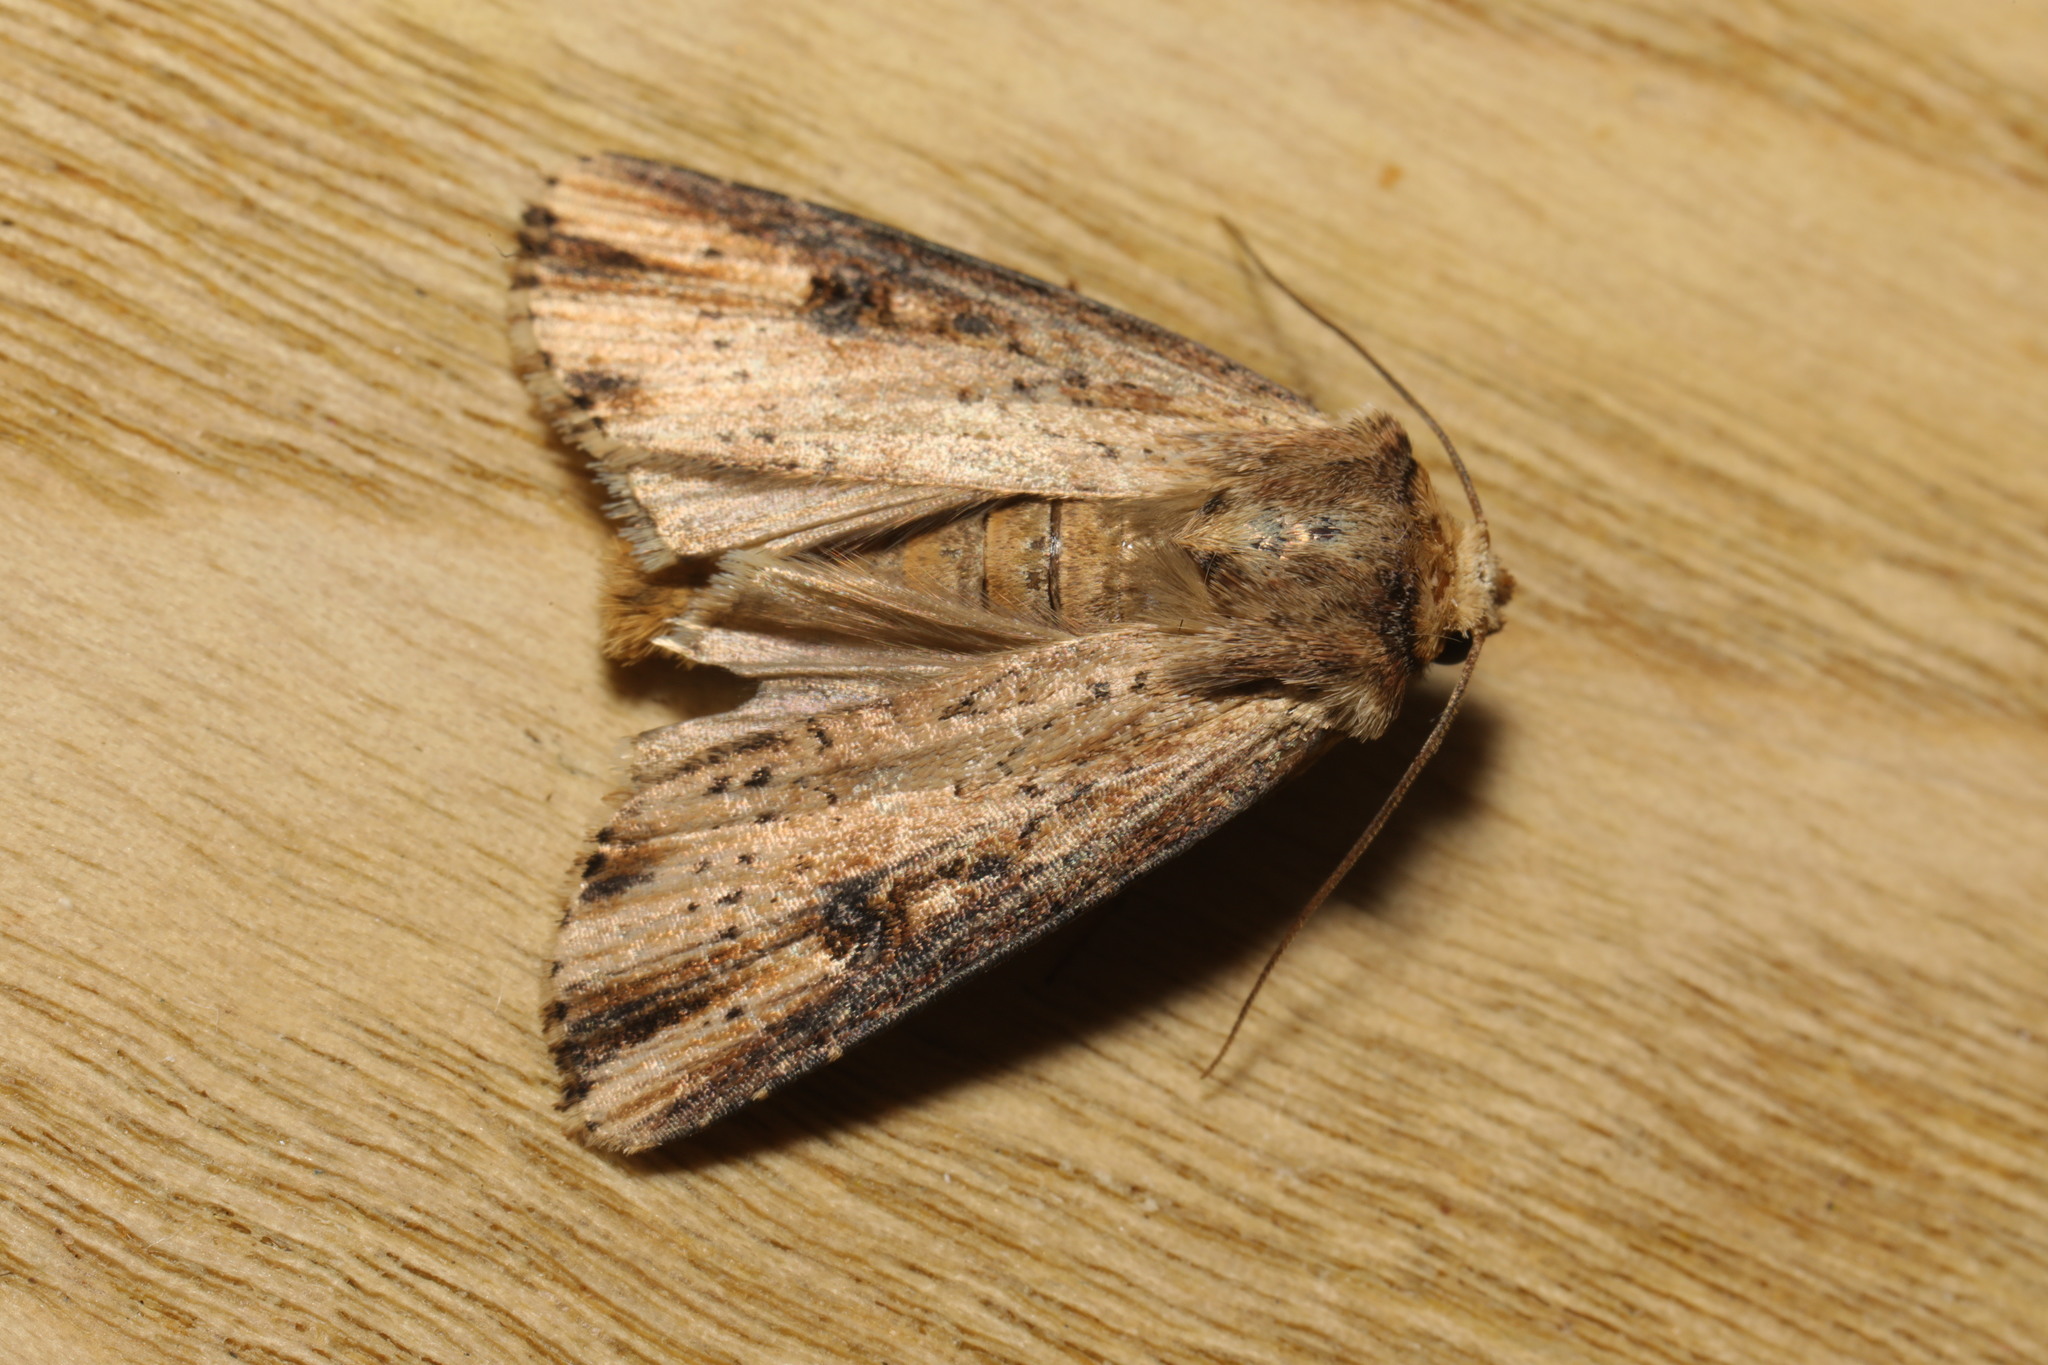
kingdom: Animalia
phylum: Arthropoda
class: Insecta
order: Lepidoptera
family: Noctuidae
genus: Axylia
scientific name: Axylia putris
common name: Flame
